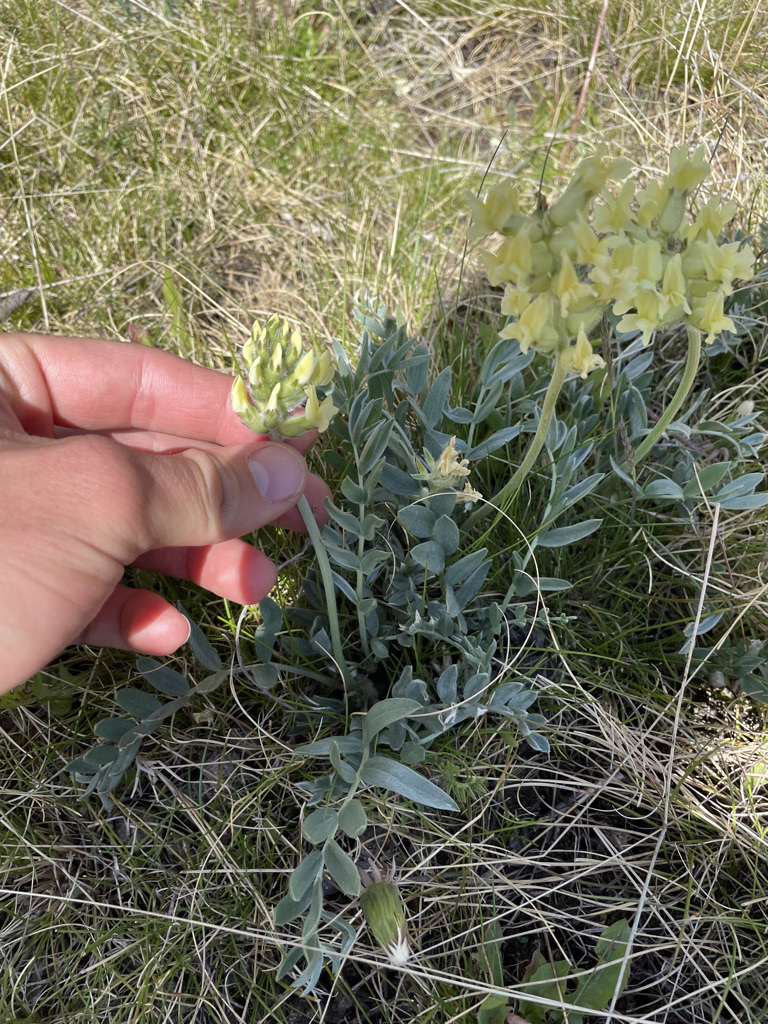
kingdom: Plantae
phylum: Tracheophyta
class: Magnoliopsida
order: Fabales
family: Fabaceae
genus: Oxytropis
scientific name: Oxytropis sericea
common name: Silky locoweed
